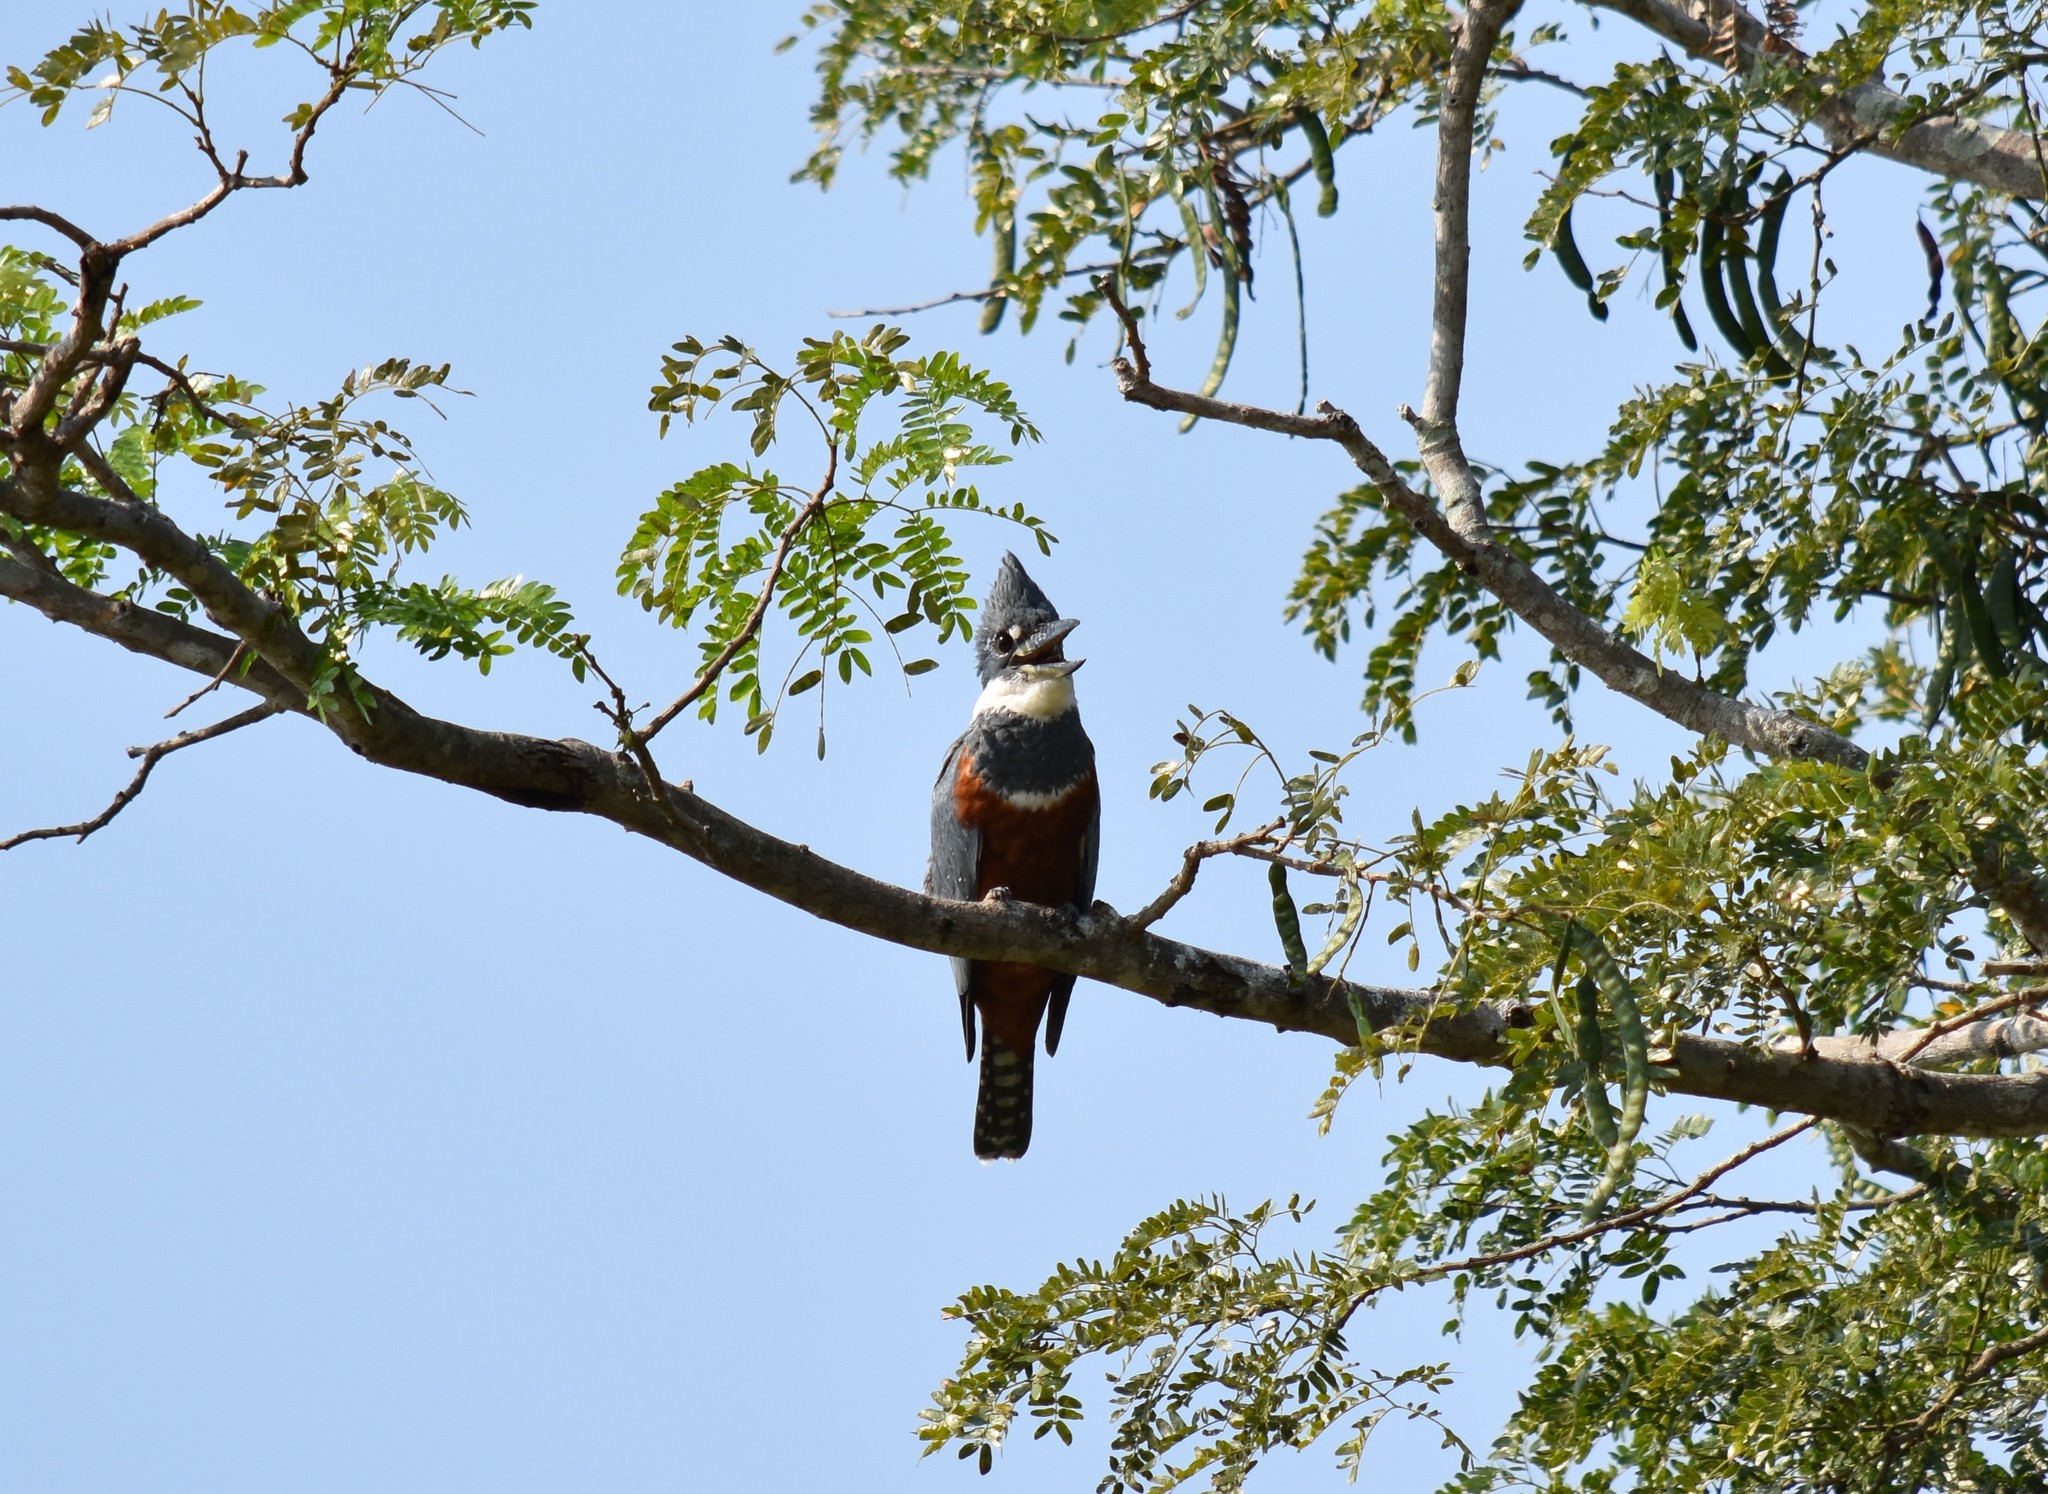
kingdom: Animalia
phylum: Chordata
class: Aves
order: Coraciiformes
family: Alcedinidae
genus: Megaceryle
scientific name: Megaceryle torquata
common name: Ringed kingfisher
